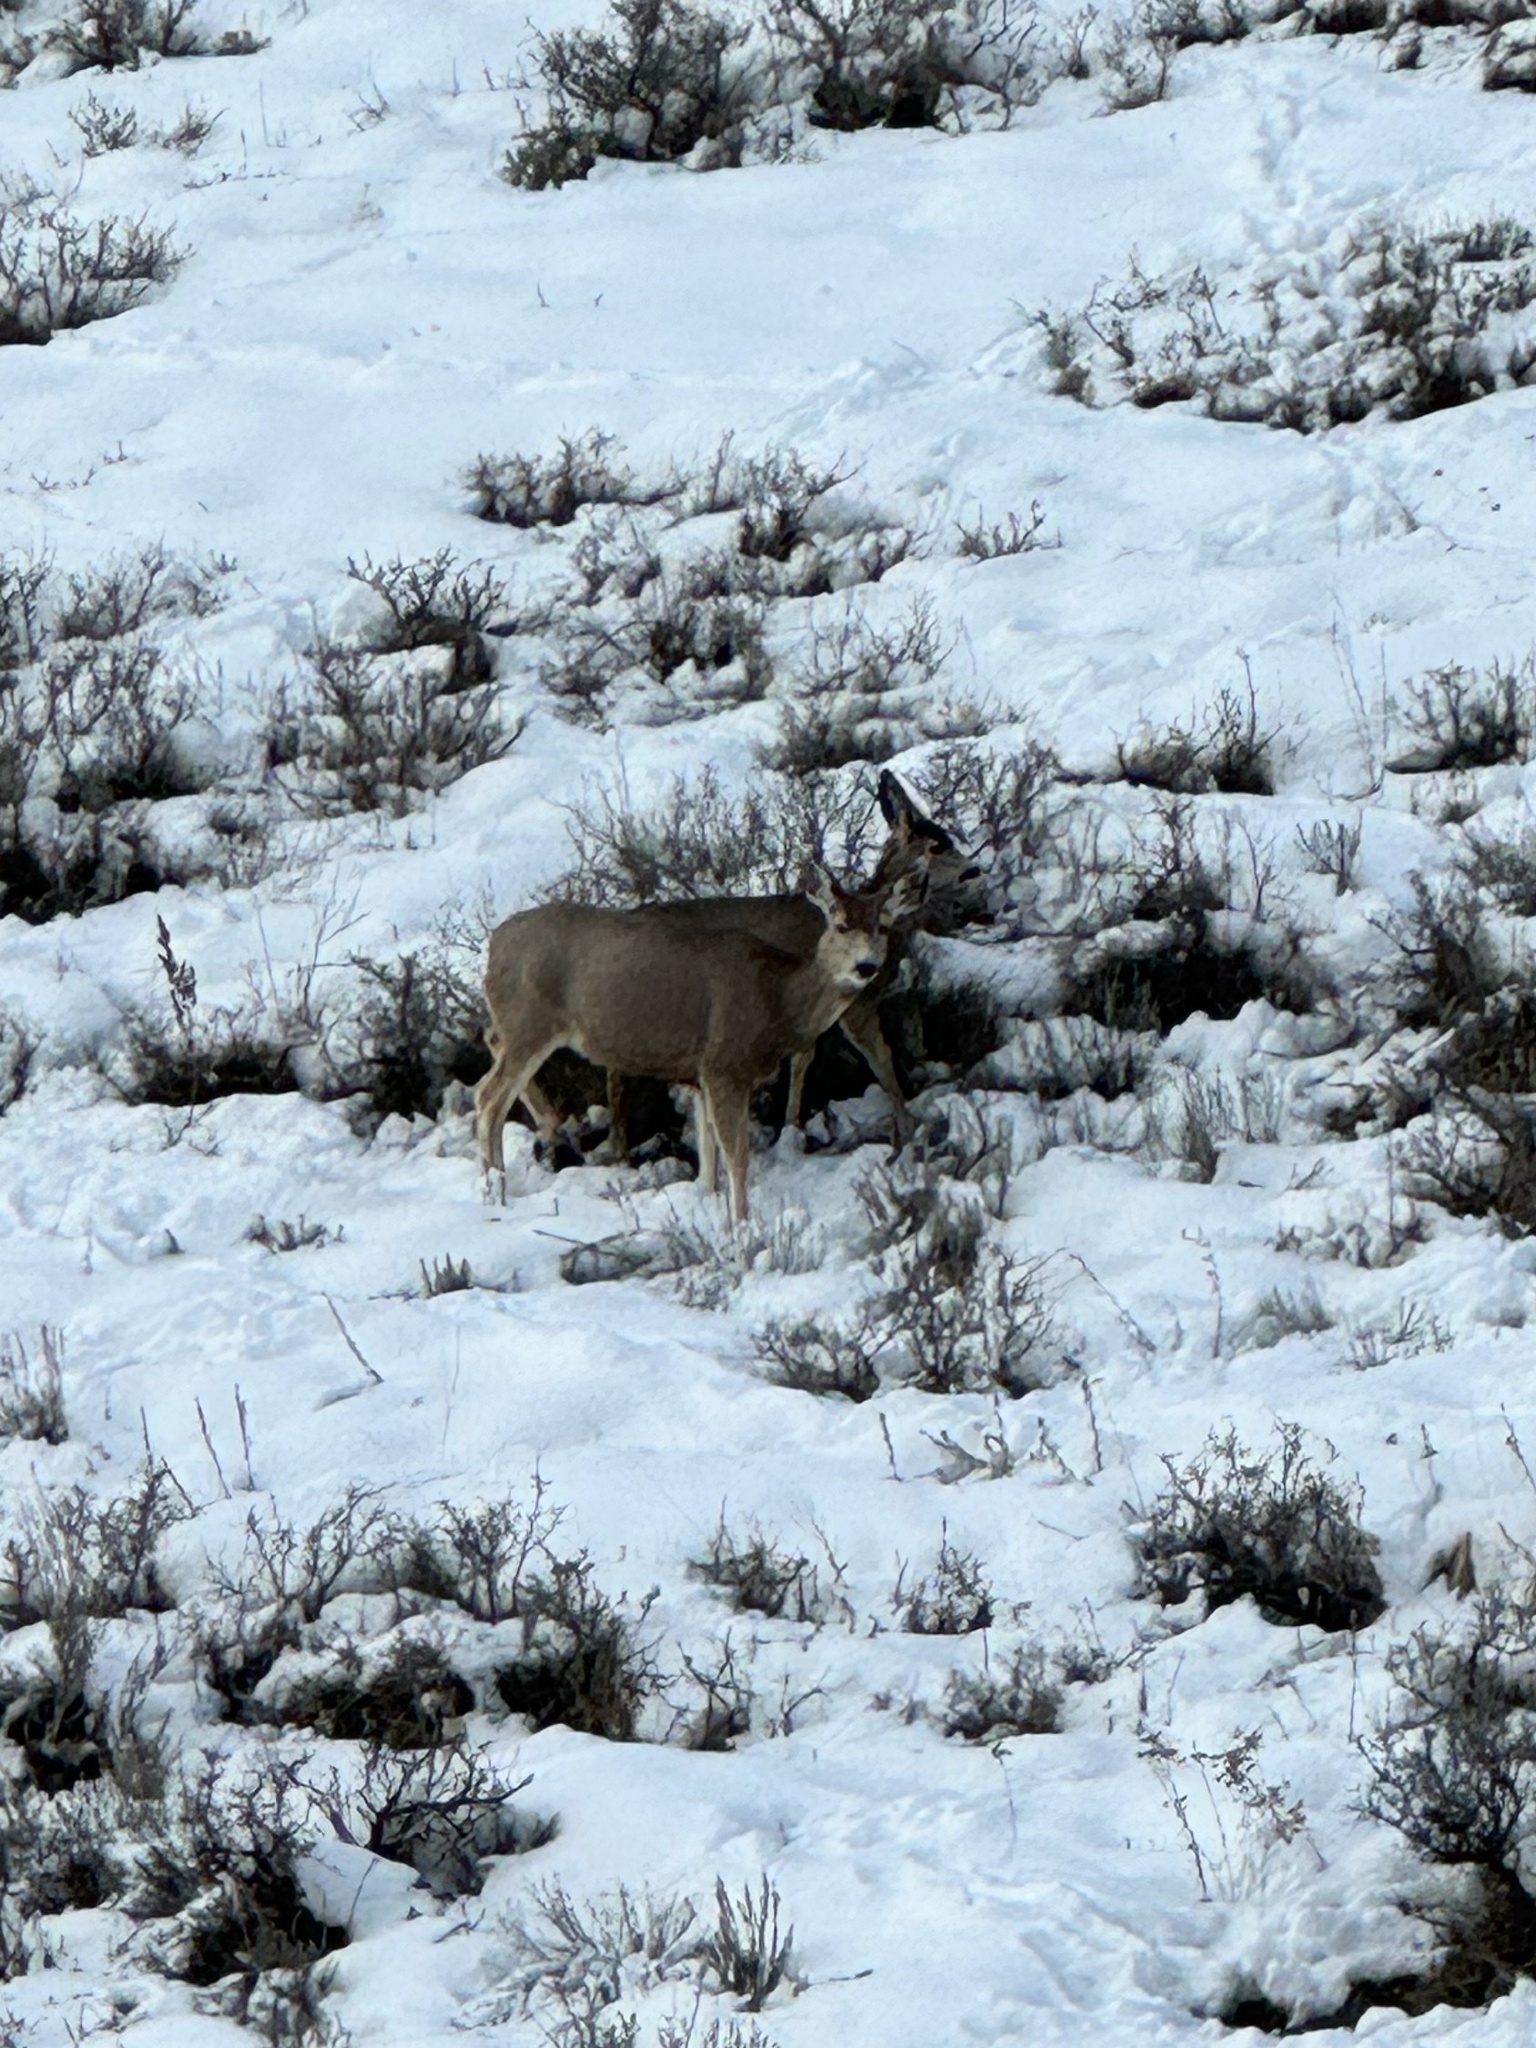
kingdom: Animalia
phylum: Chordata
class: Mammalia
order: Artiodactyla
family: Cervidae
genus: Odocoileus
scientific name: Odocoileus hemionus
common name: Mule deer
